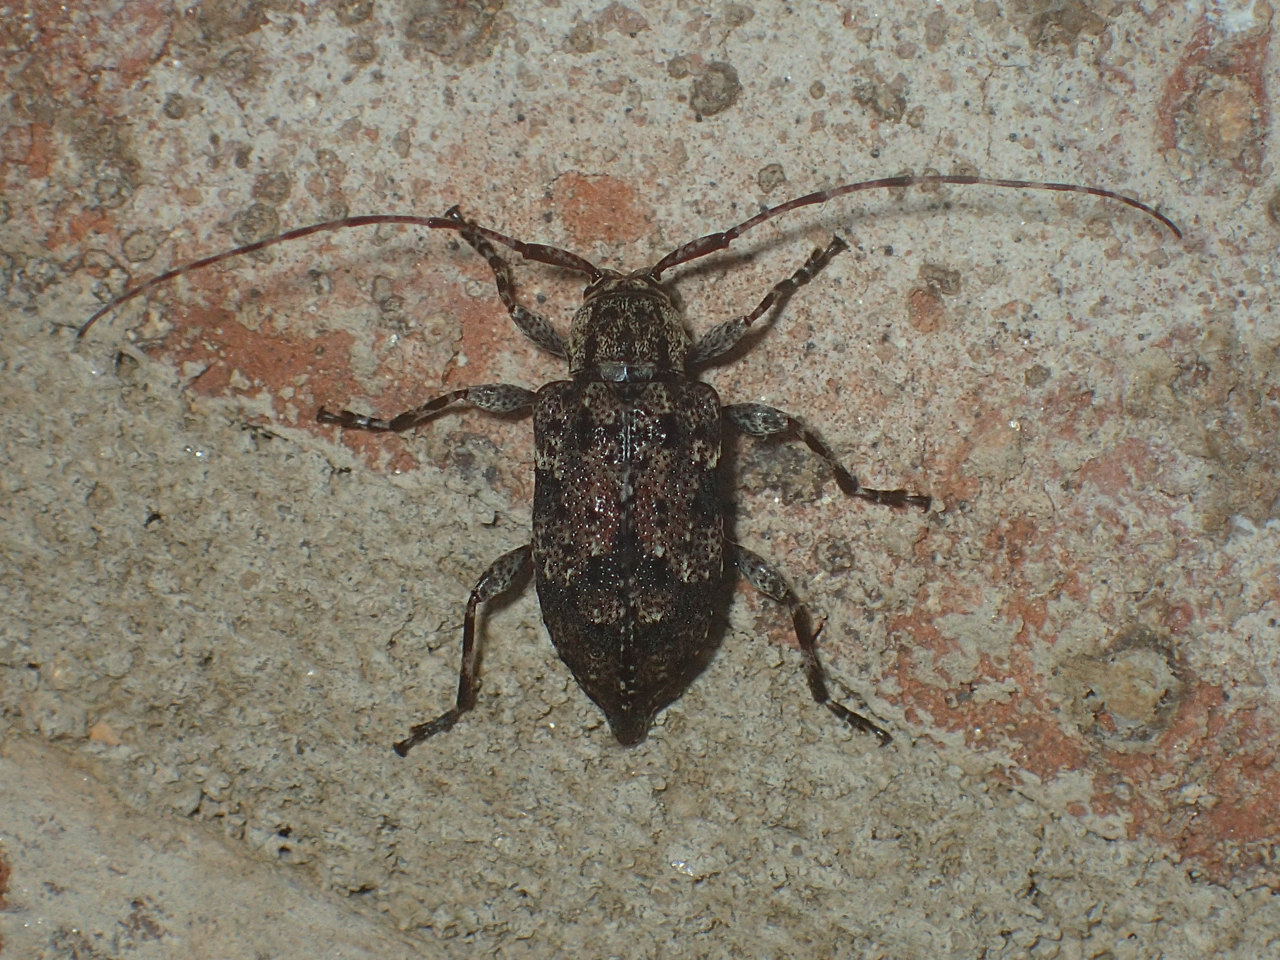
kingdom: Animalia
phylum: Arthropoda
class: Insecta
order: Coleoptera
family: Cerambycidae
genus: Astylopsis
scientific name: Astylopsis sexguttata
